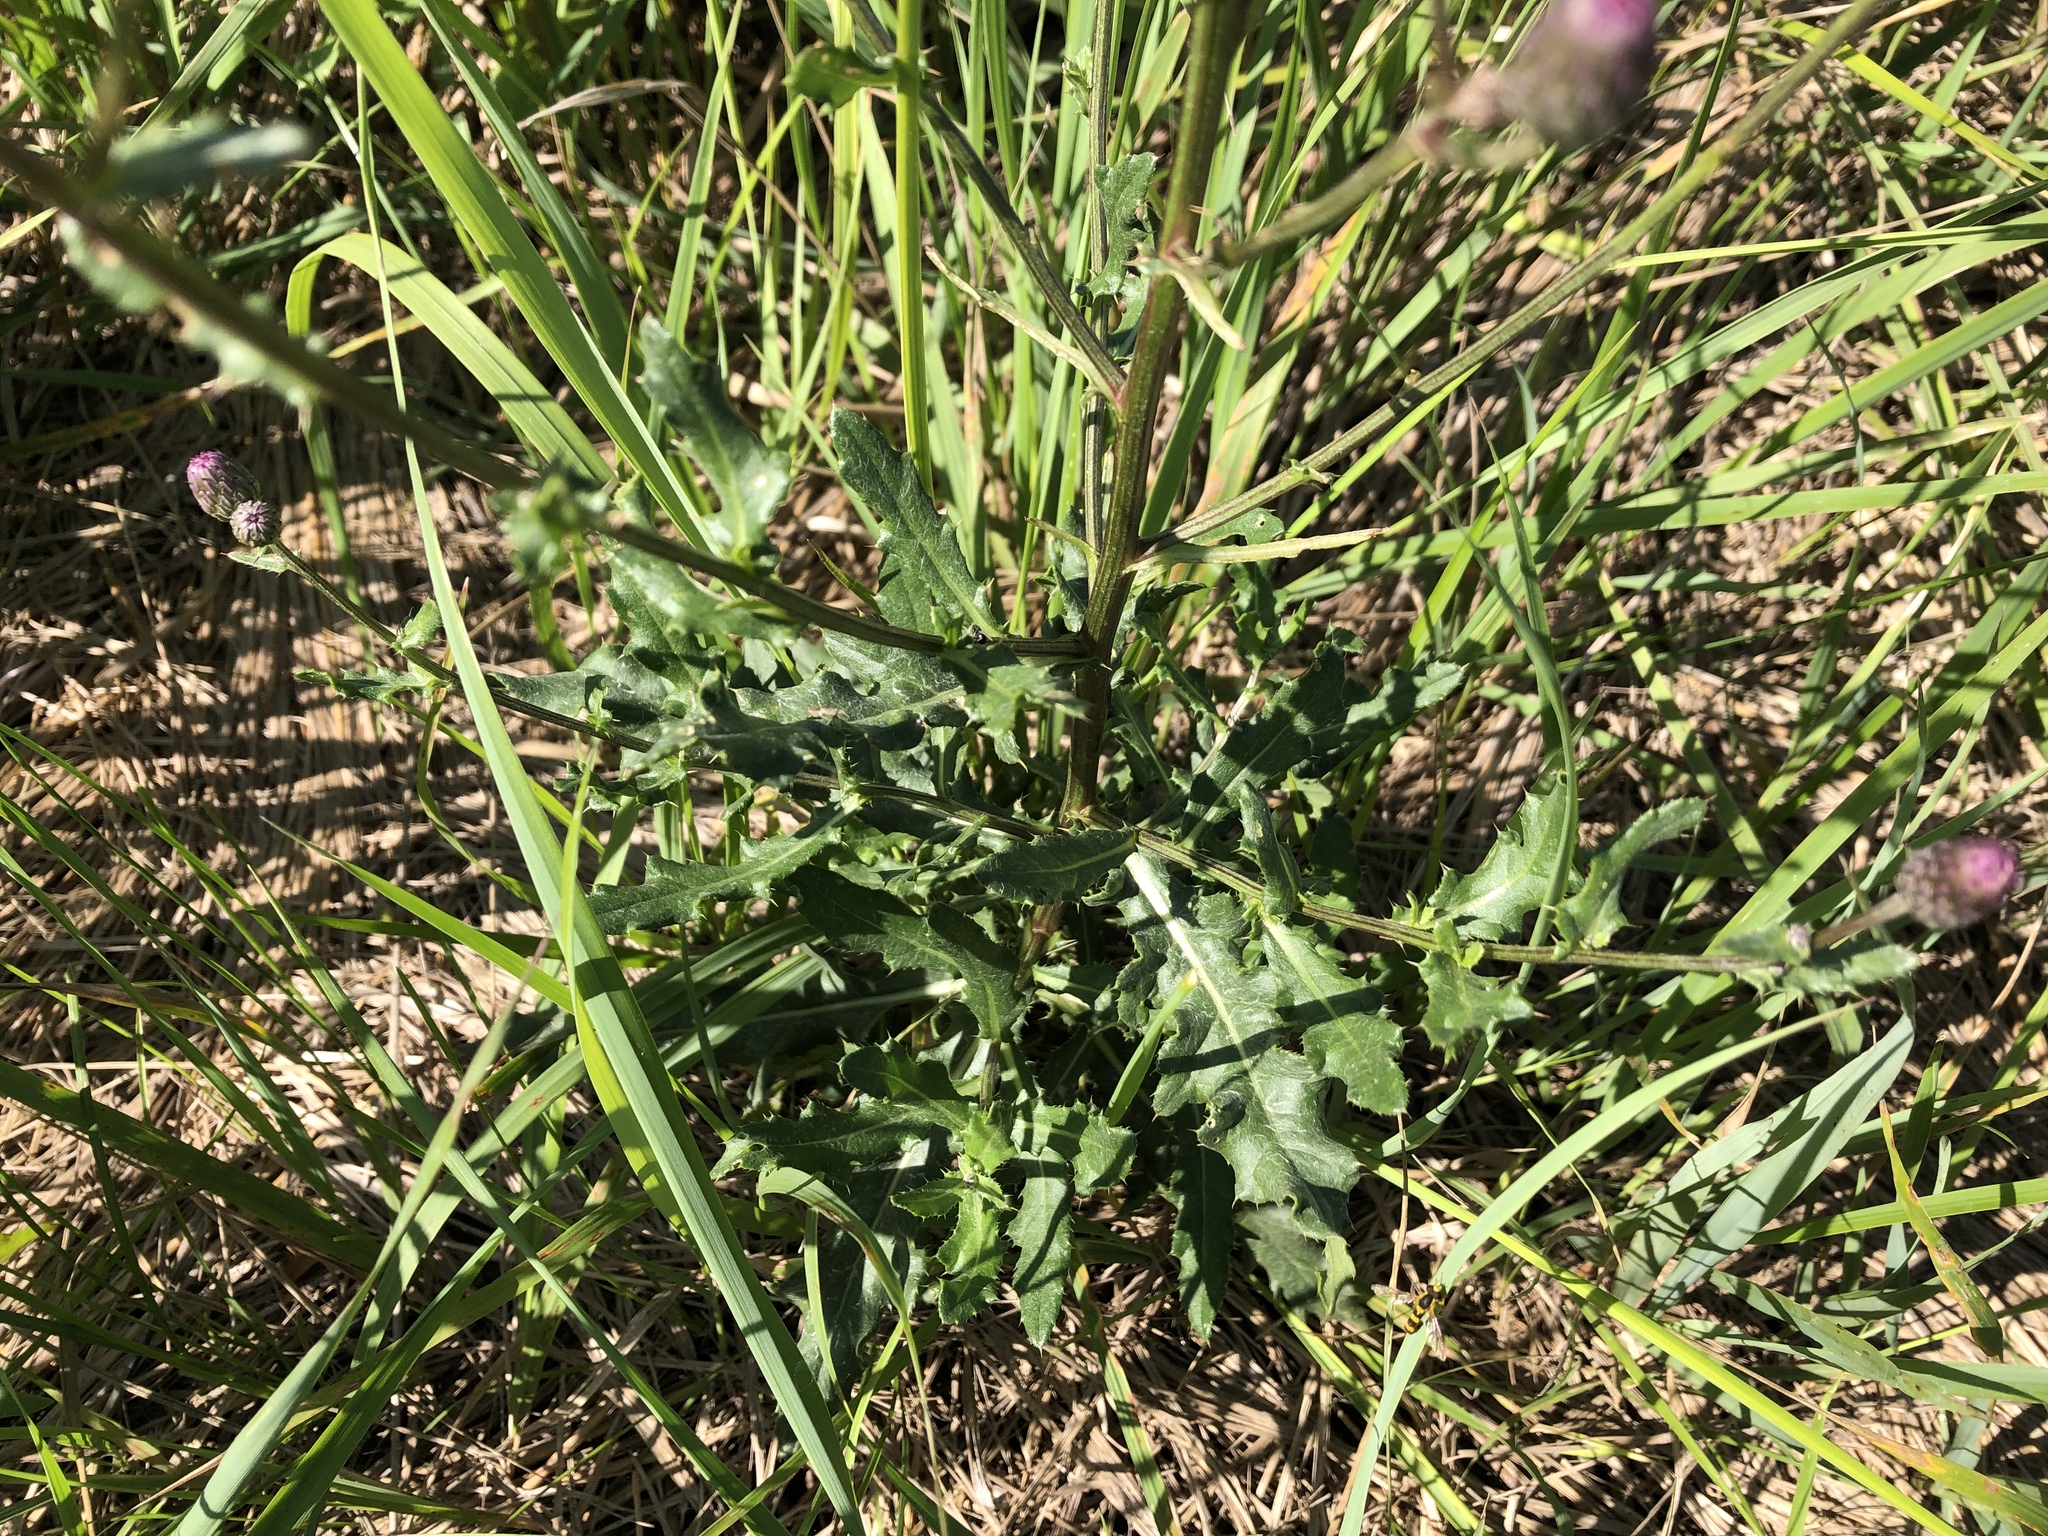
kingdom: Plantae
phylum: Tracheophyta
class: Magnoliopsida
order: Asterales
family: Asteraceae
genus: Cirsium
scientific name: Cirsium arvense
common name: Creeping thistle
